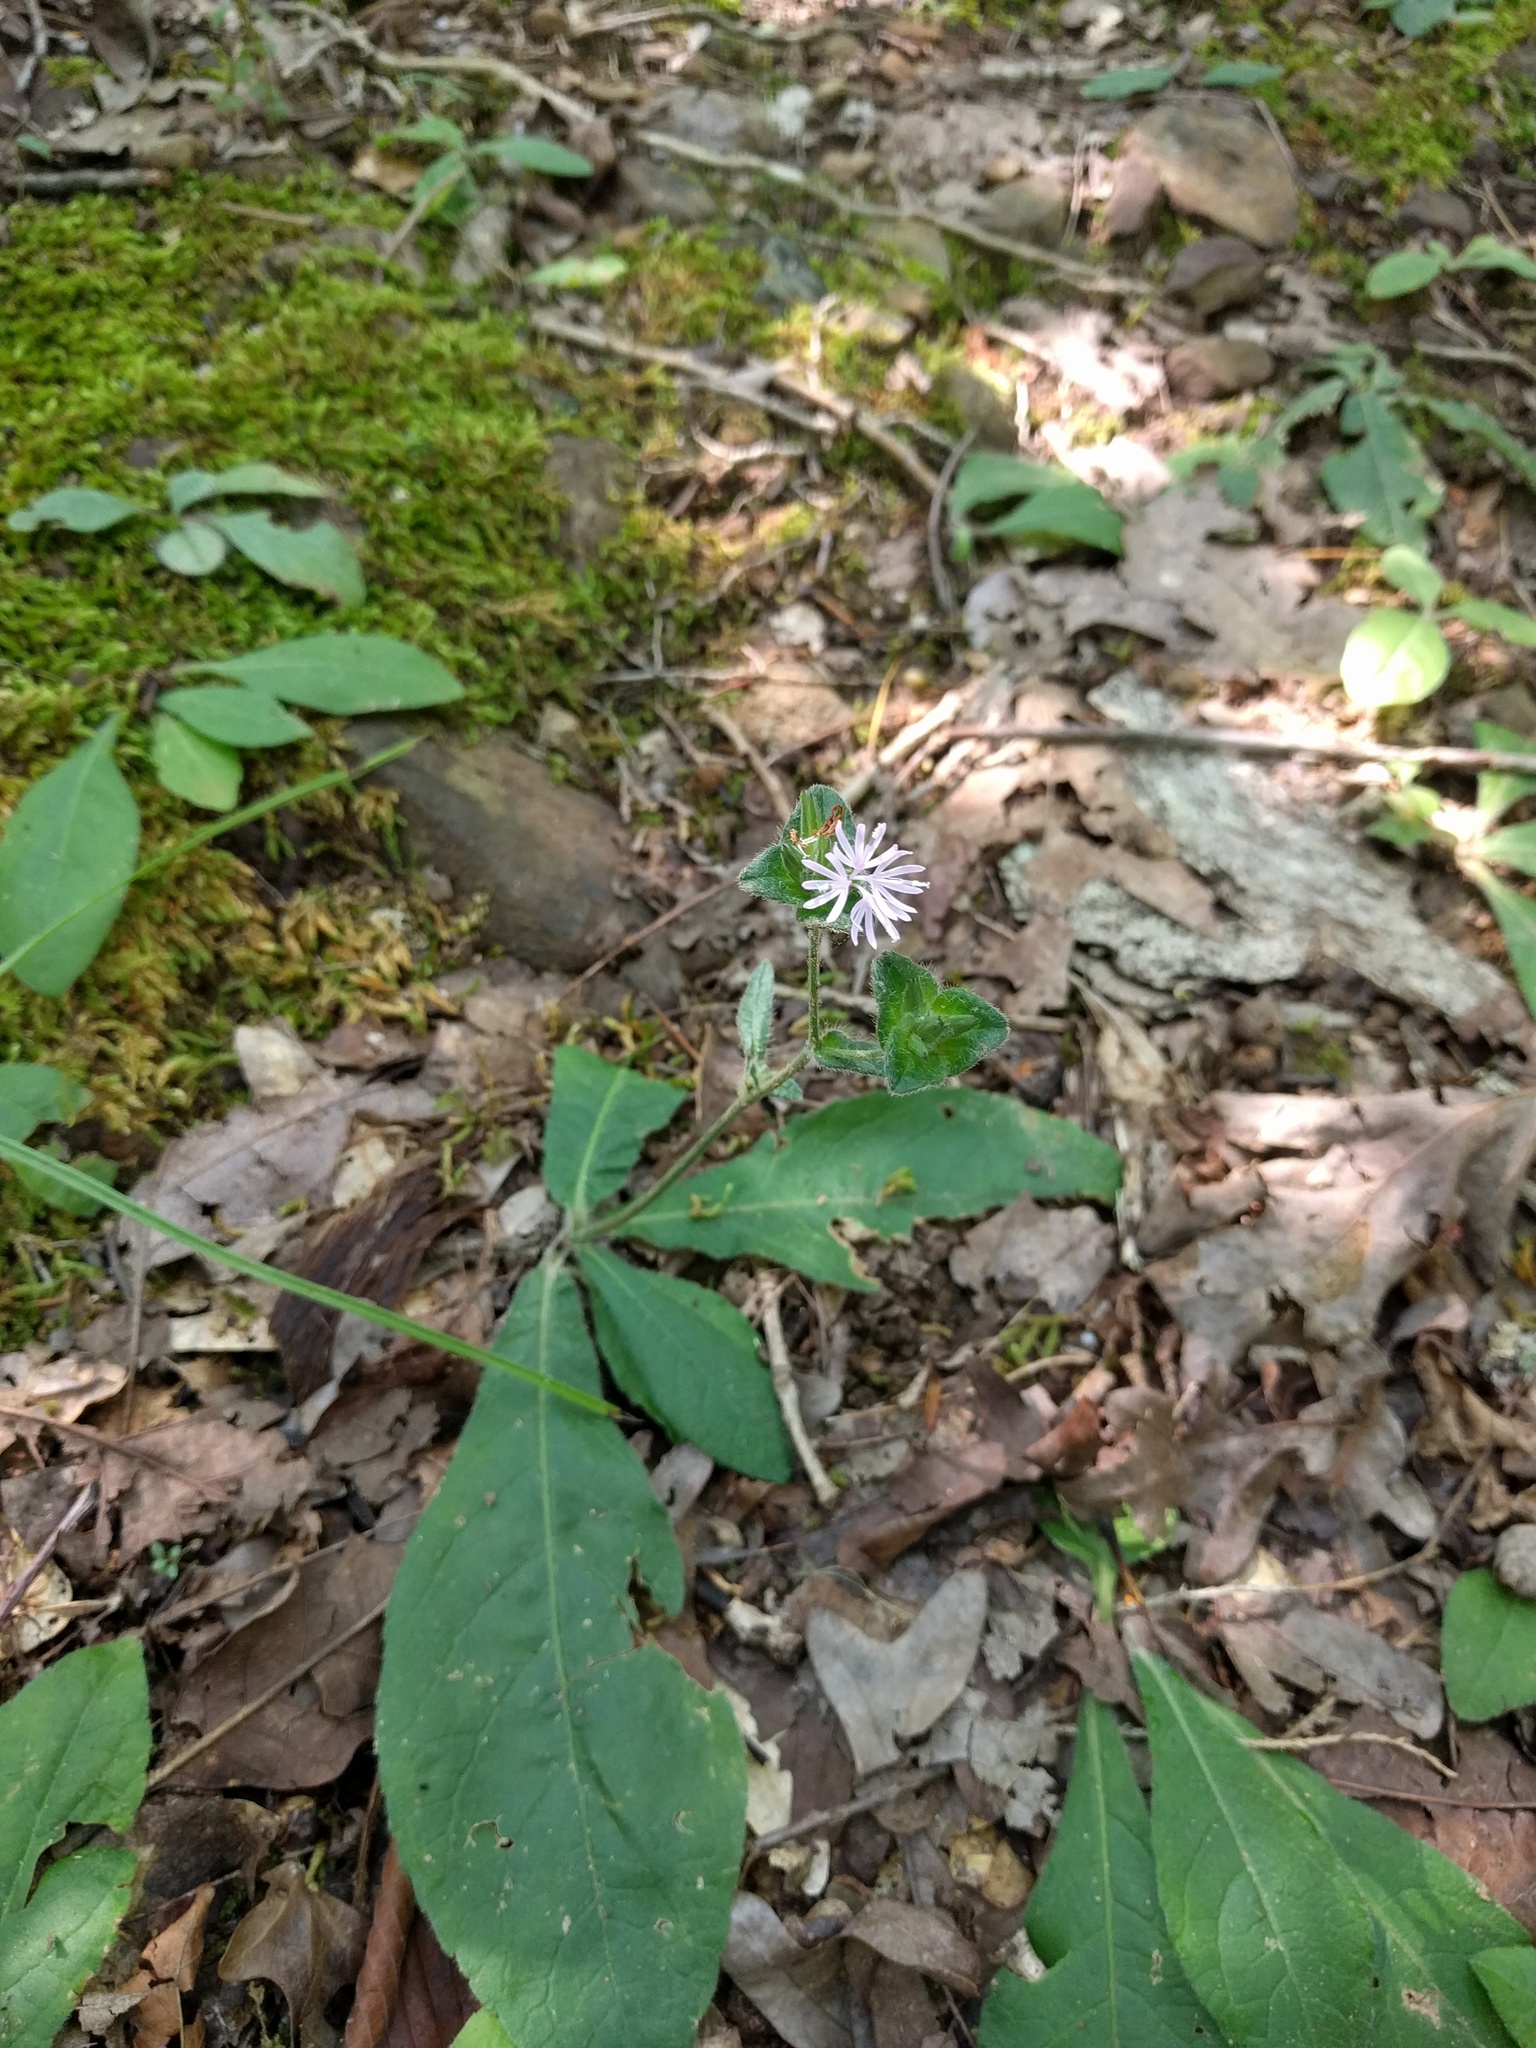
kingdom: Plantae
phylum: Tracheophyta
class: Magnoliopsida
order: Asterales
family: Asteraceae
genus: Elephantopus
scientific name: Elephantopus tomentosus
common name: Tobacco-weed
